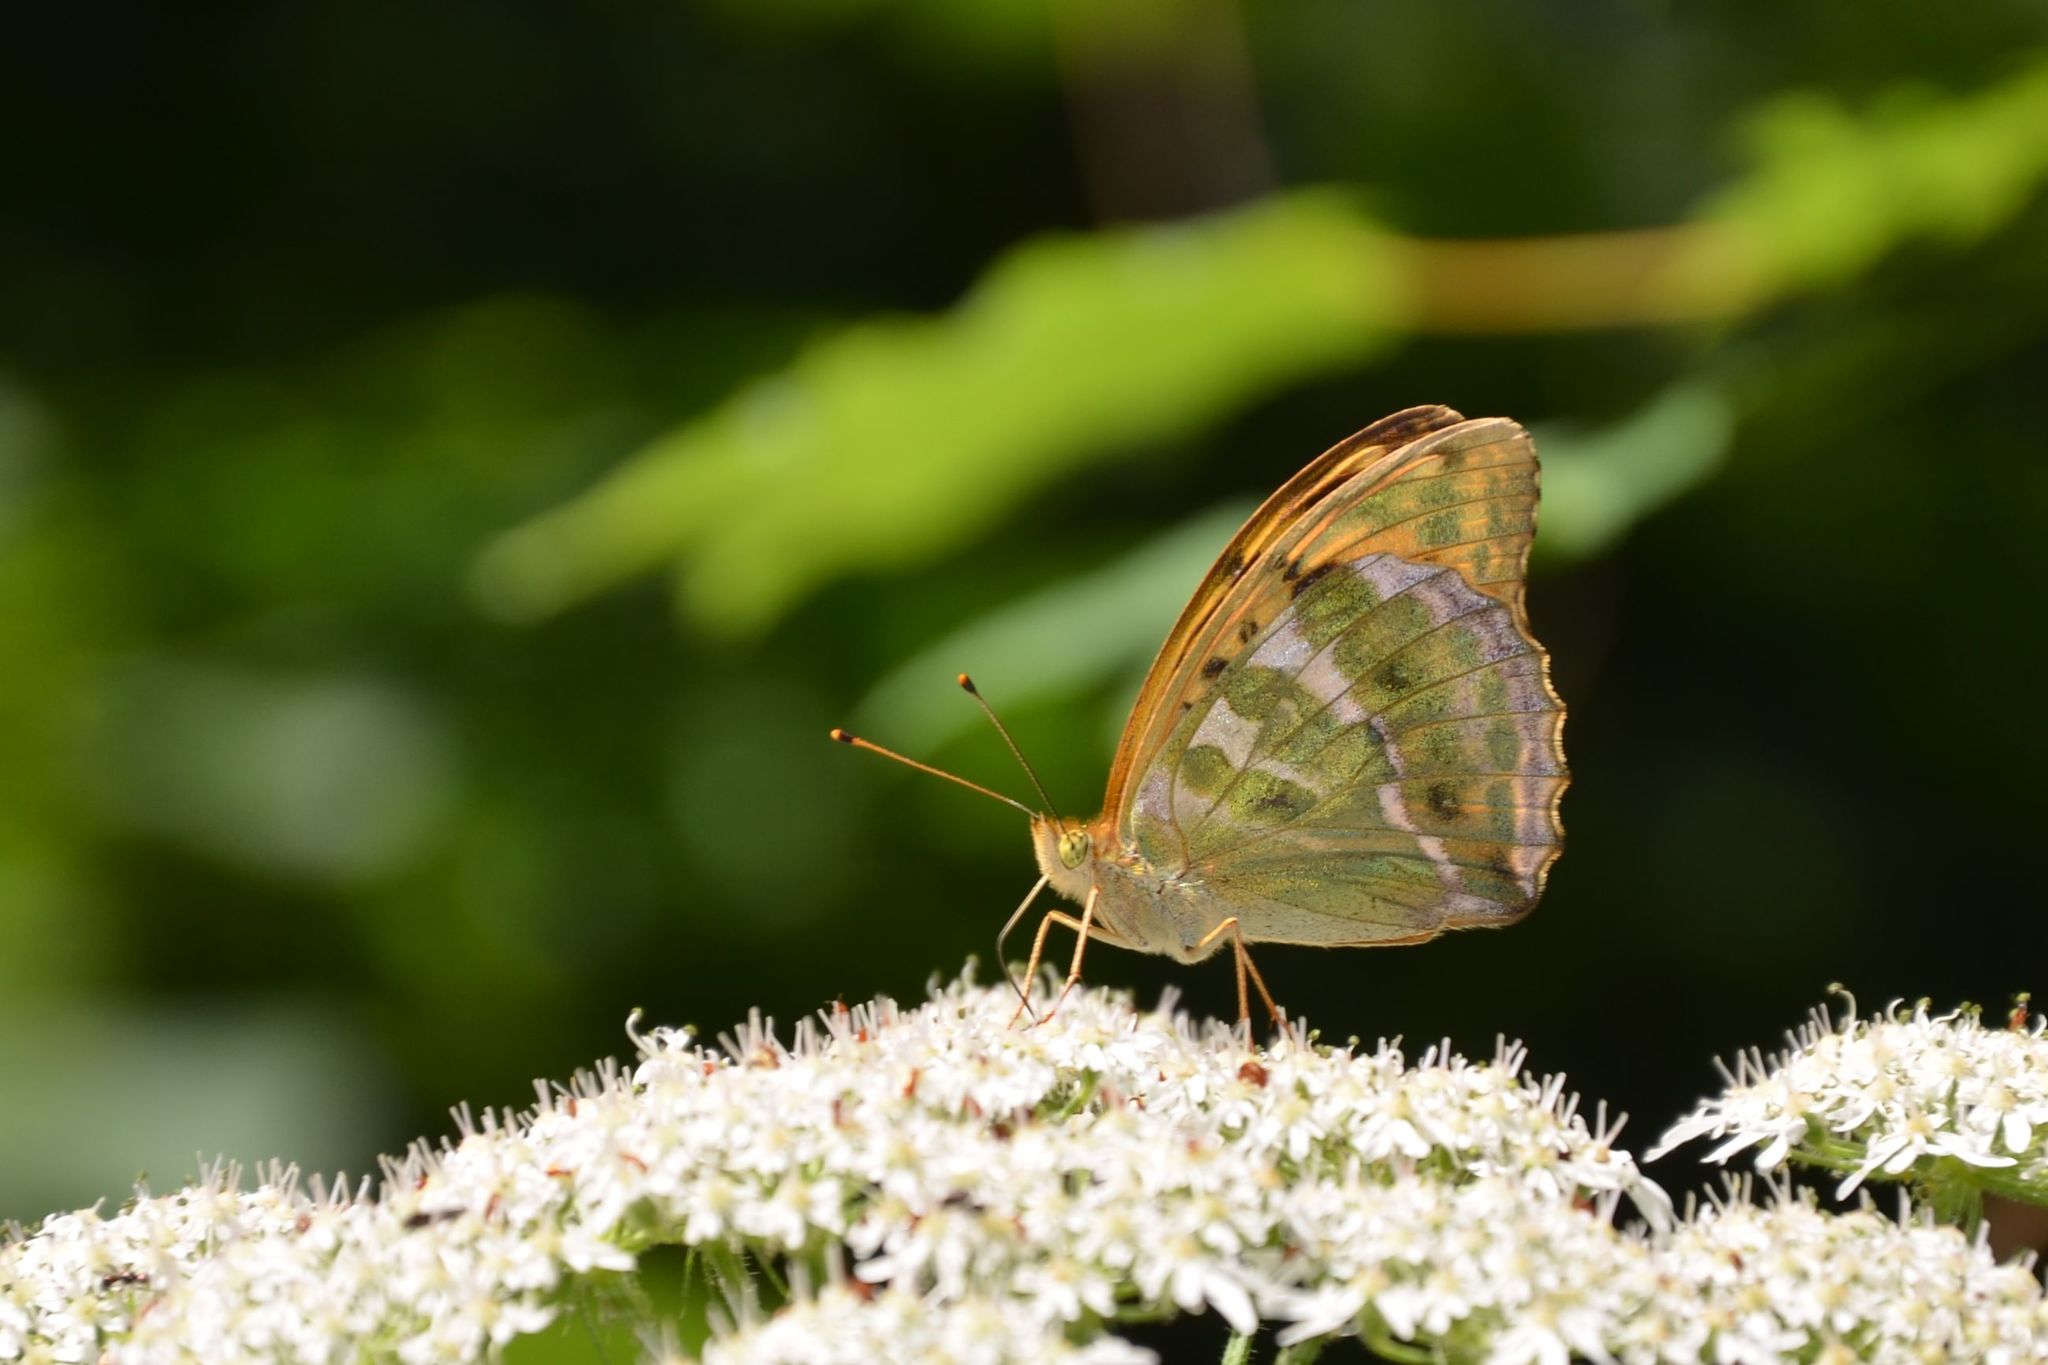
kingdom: Animalia
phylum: Arthropoda
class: Insecta
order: Lepidoptera
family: Nymphalidae
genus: Argynnis
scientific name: Argynnis paphia
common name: Silver-washed fritillary
